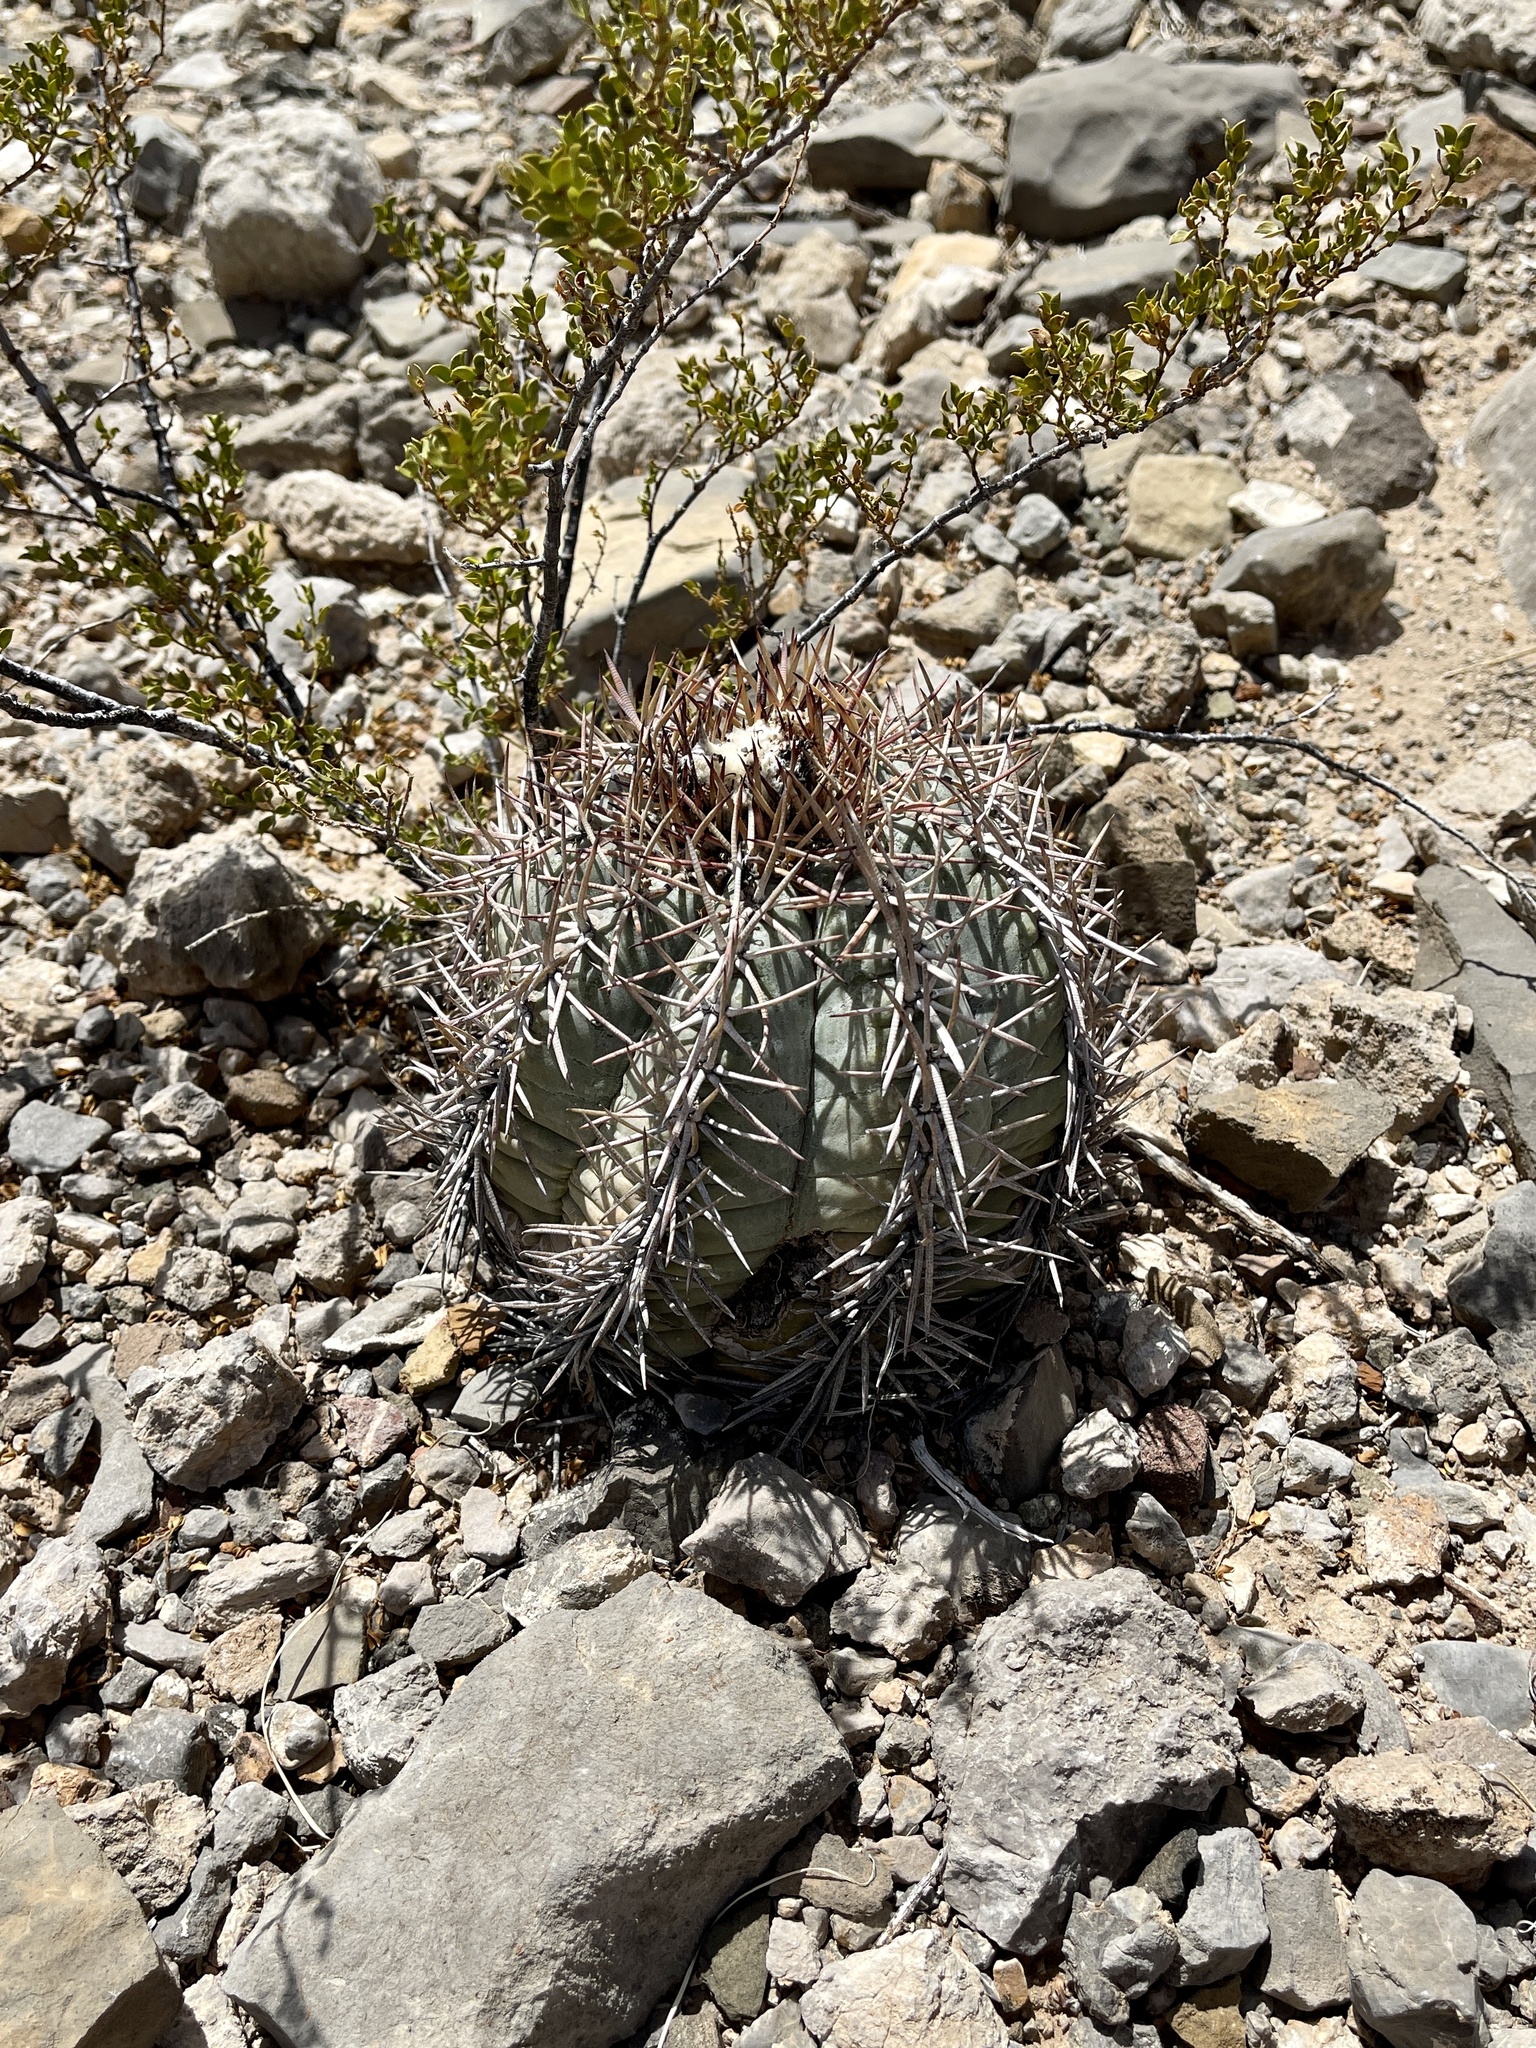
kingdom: Plantae
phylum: Tracheophyta
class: Magnoliopsida
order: Caryophyllales
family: Cactaceae
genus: Echinocactus
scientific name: Echinocactus horizonthalonius
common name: Devilshead
